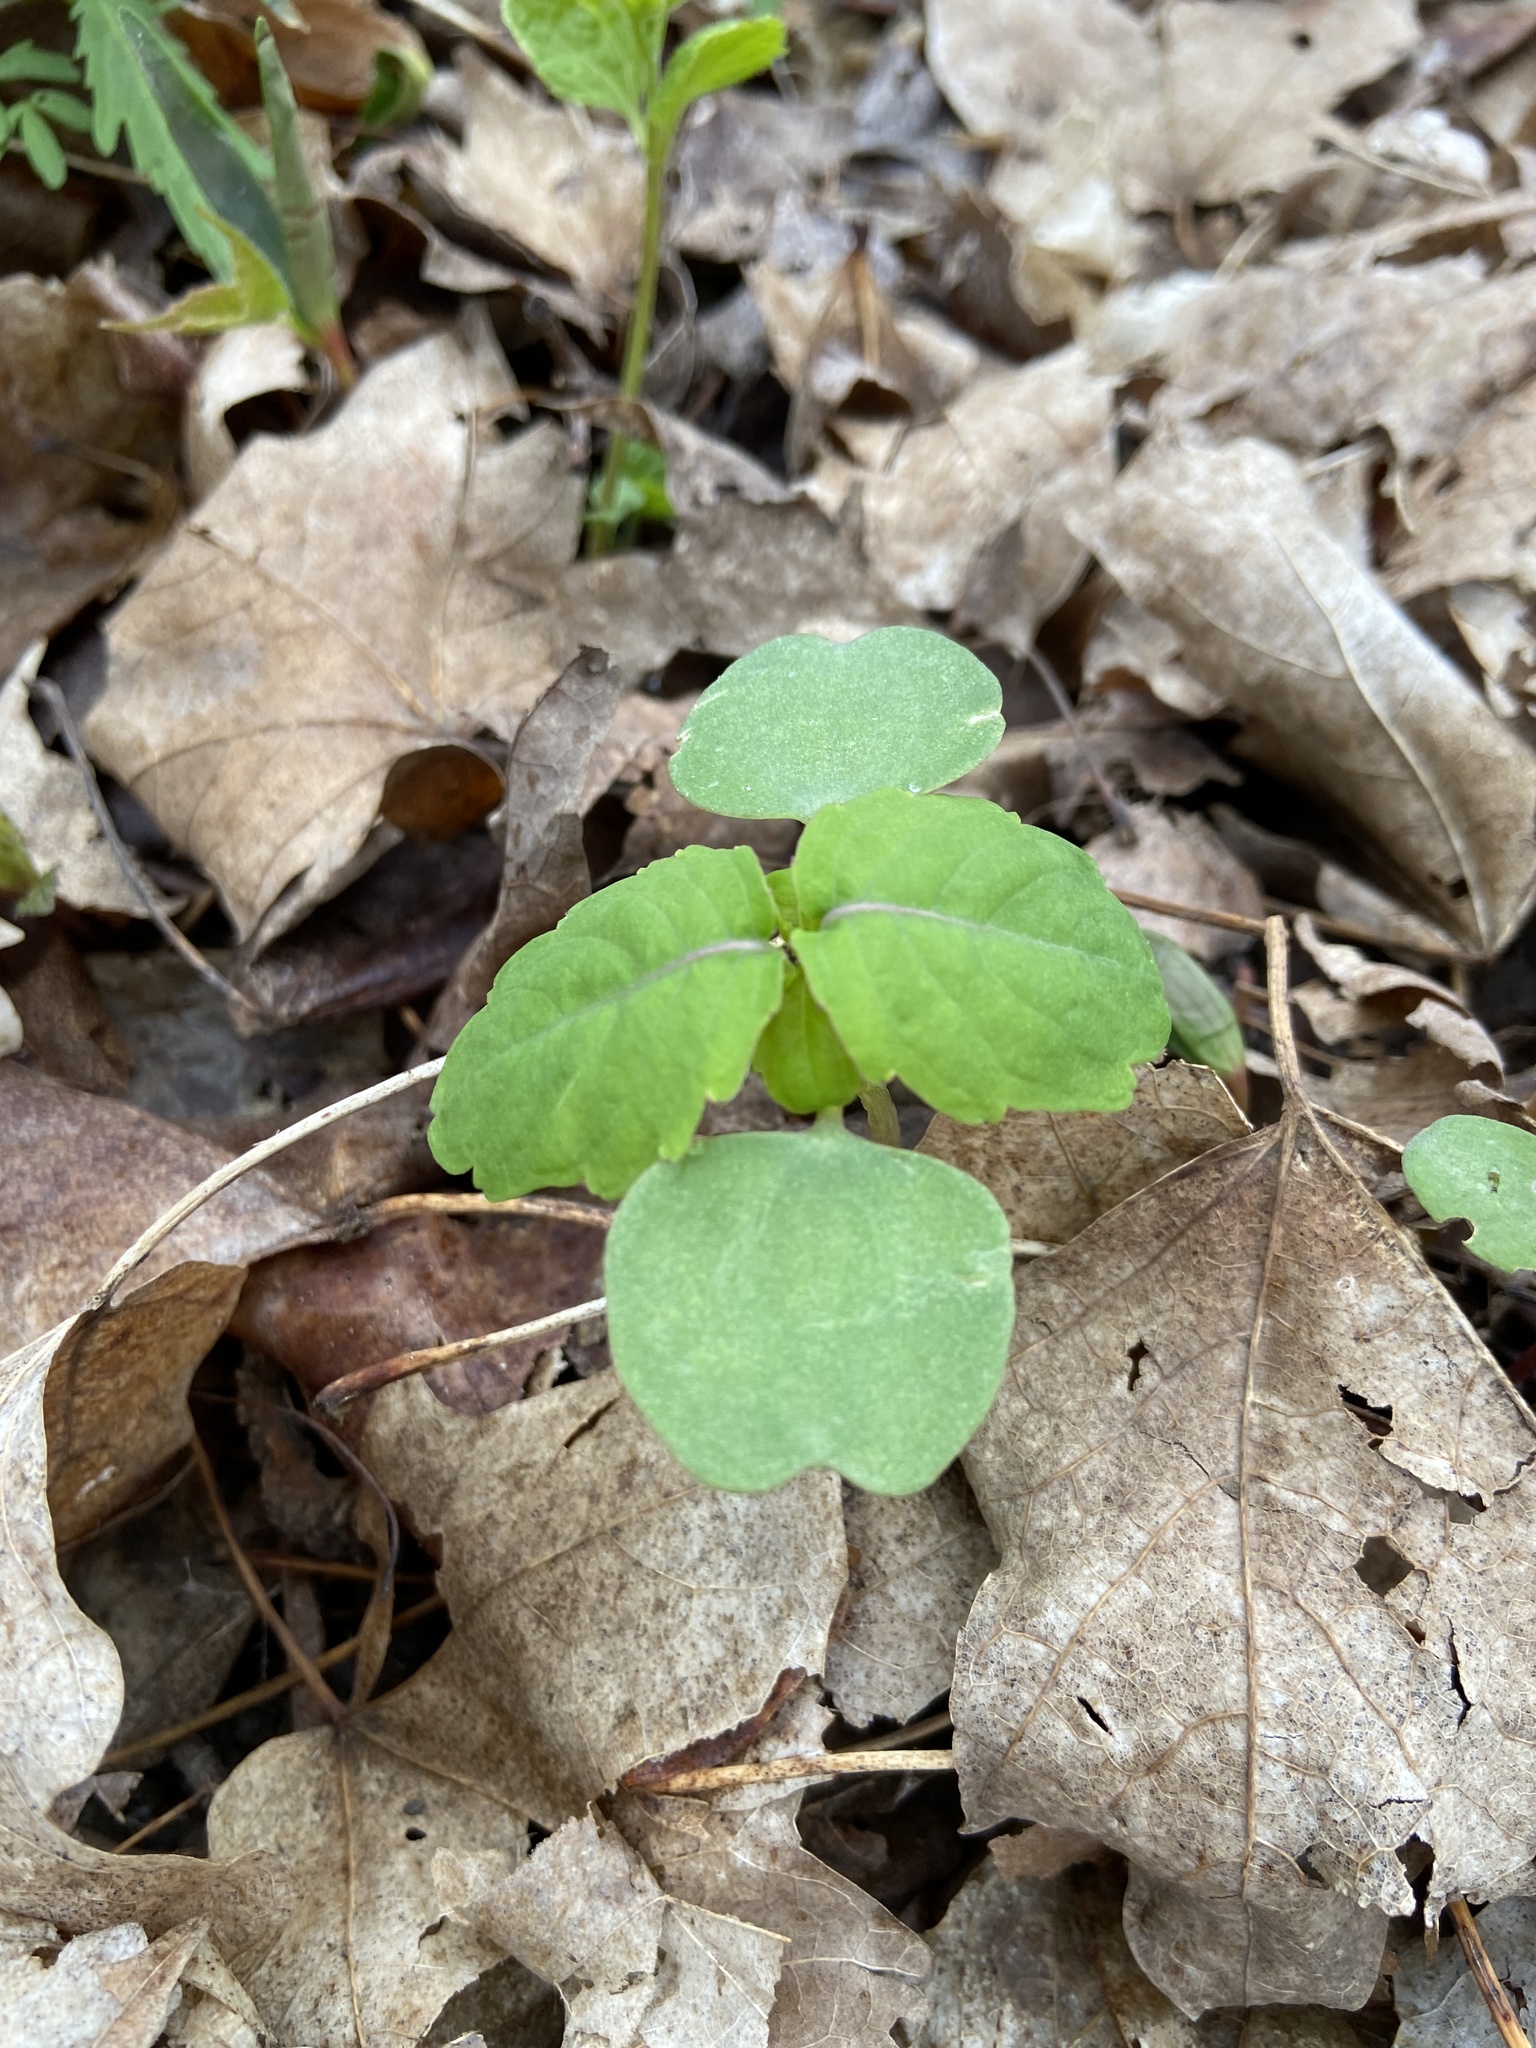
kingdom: Plantae
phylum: Tracheophyta
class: Magnoliopsida
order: Ericales
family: Balsaminaceae
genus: Impatiens
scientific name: Impatiens capensis
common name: Orange balsam
